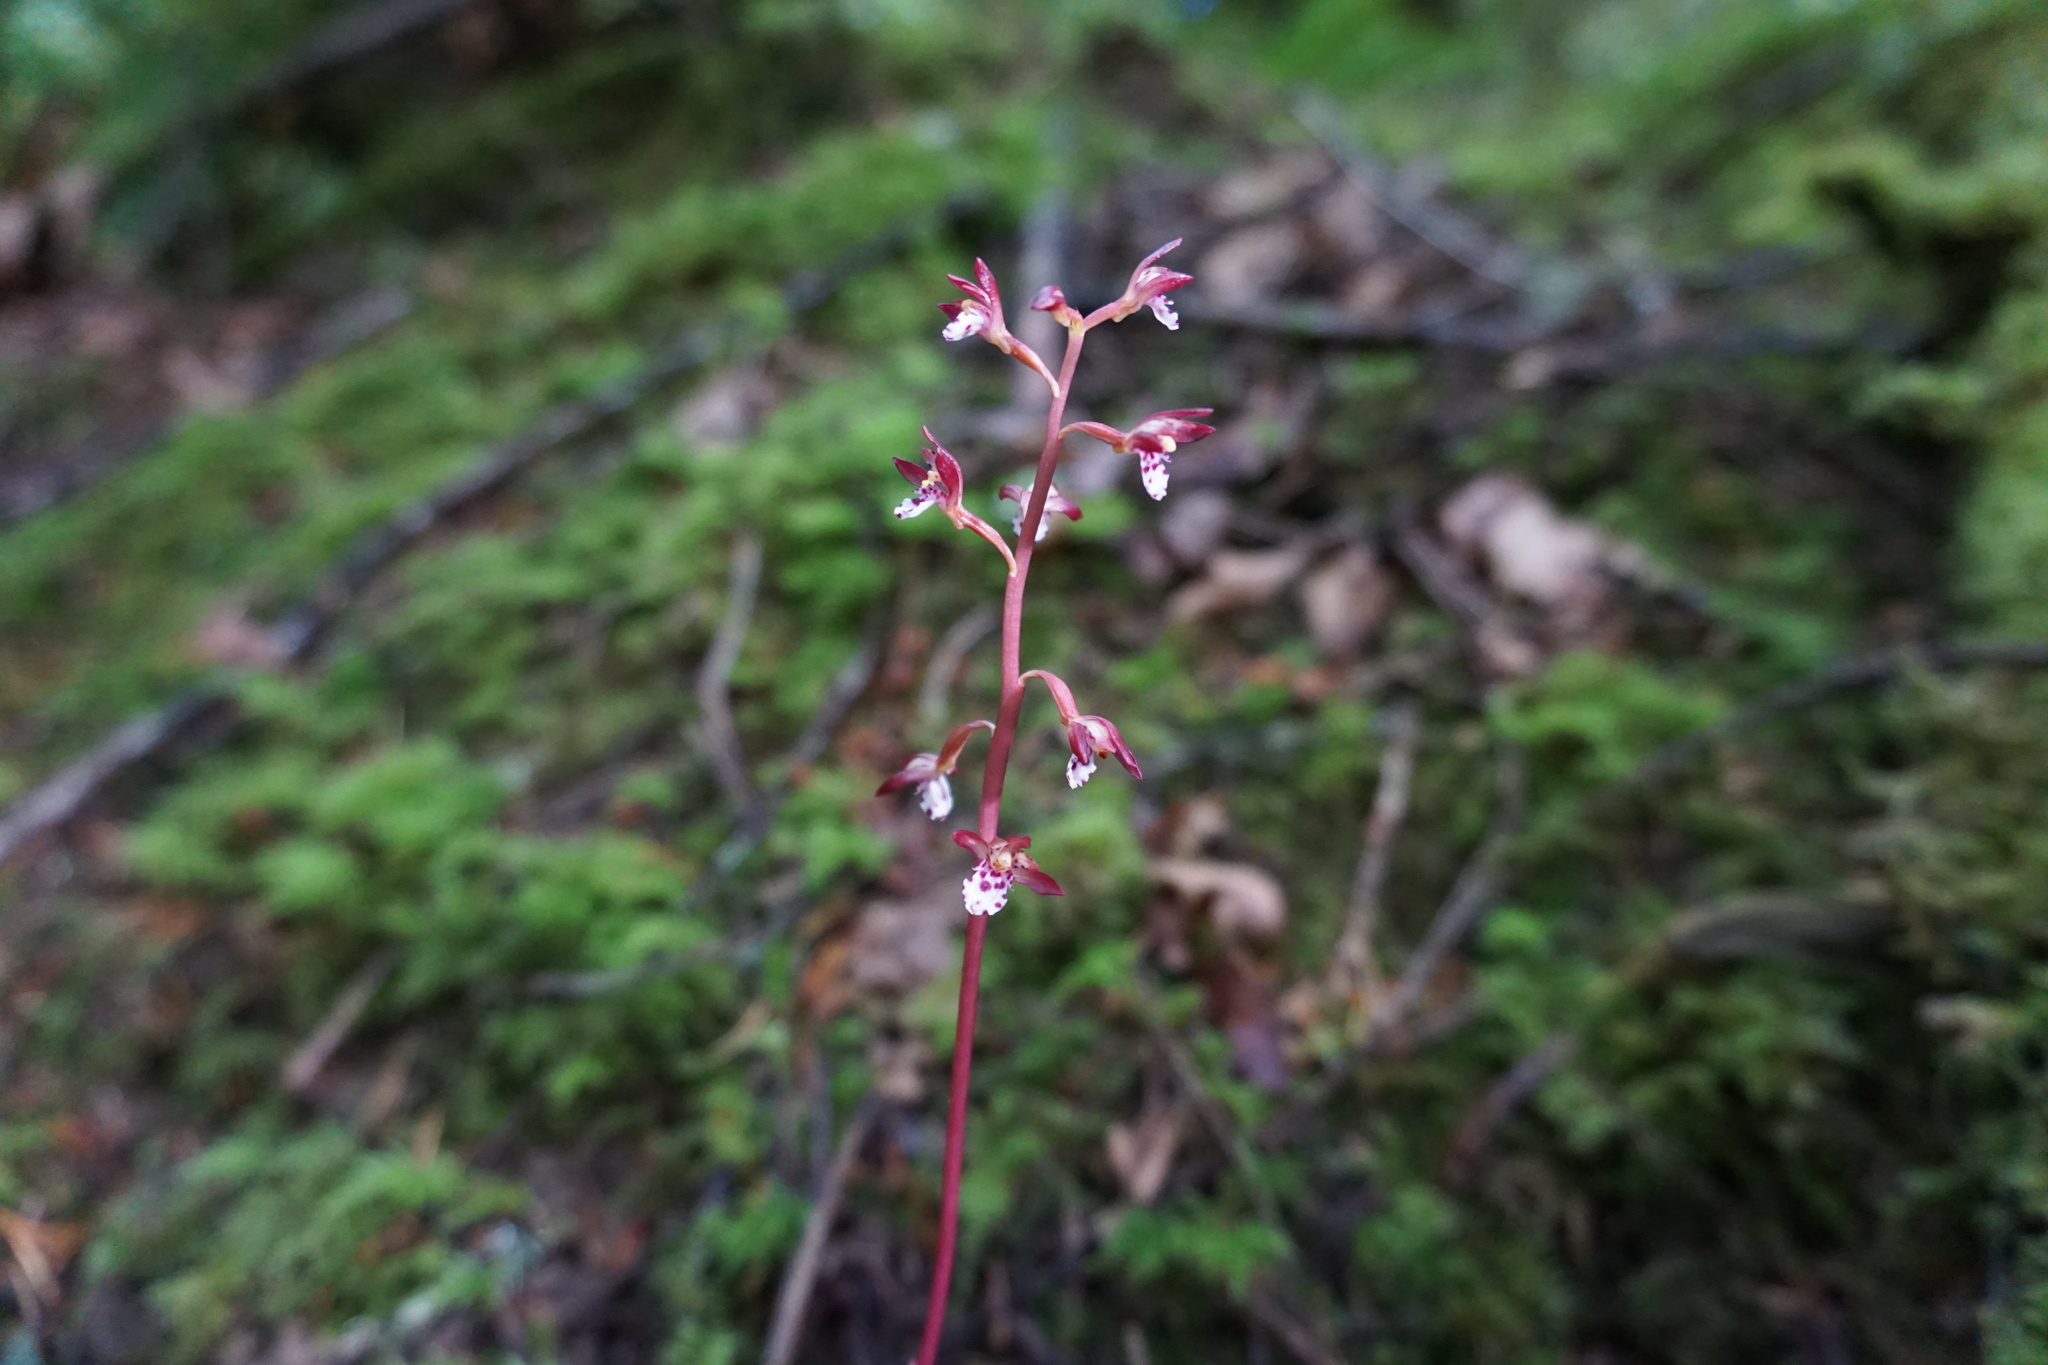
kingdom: Plantae
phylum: Tracheophyta
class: Liliopsida
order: Asparagales
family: Orchidaceae
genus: Corallorhiza
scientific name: Corallorhiza maculata
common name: Spotted coralroot
